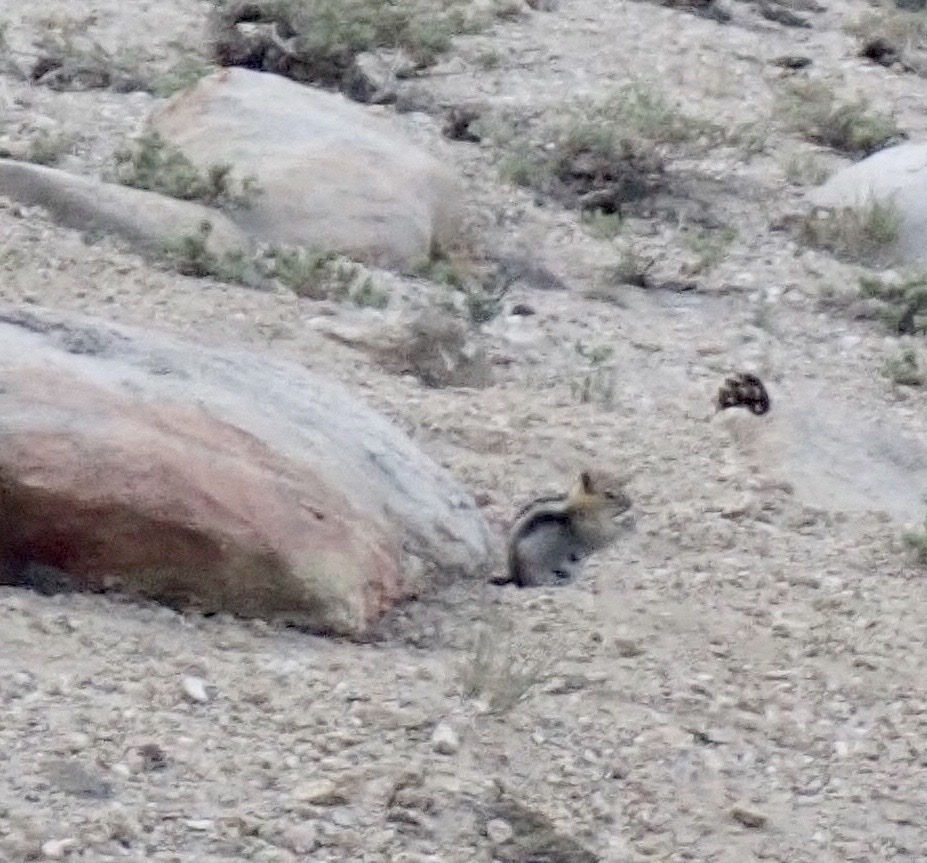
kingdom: Animalia
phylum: Chordata
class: Mammalia
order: Rodentia
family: Sciuridae
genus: Callospermophilus
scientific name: Callospermophilus lateralis
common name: Golden-mantled ground squirrel
